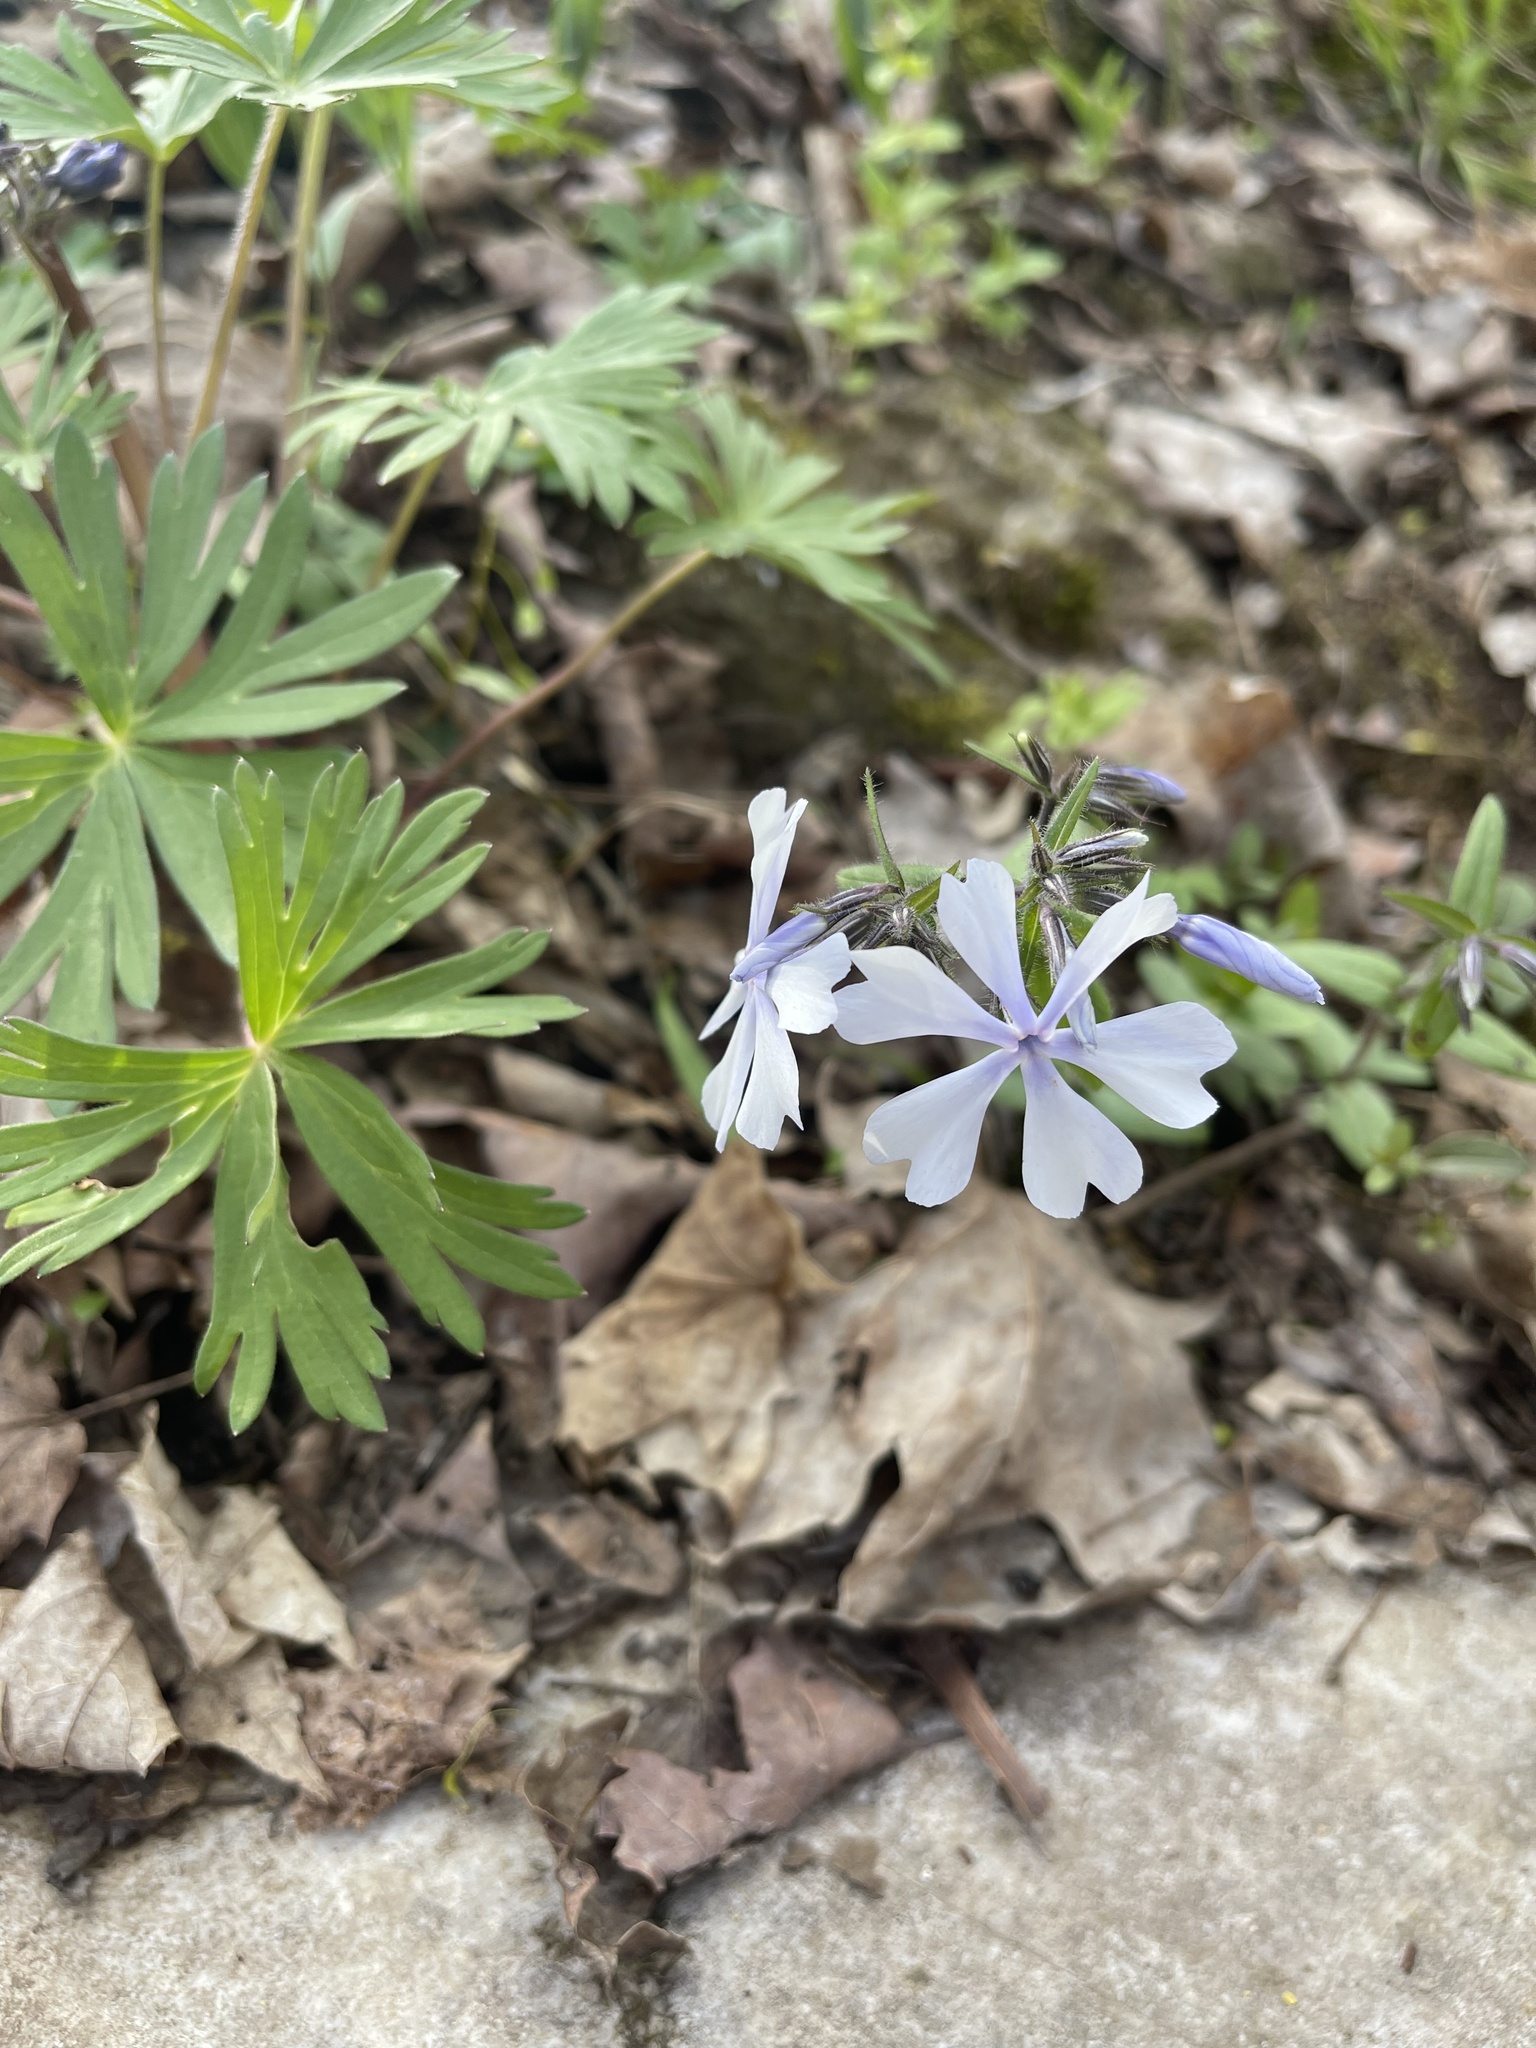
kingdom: Plantae
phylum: Tracheophyta
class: Magnoliopsida
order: Ericales
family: Polemoniaceae
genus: Phlox
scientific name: Phlox divaricata
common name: Blue phlox
